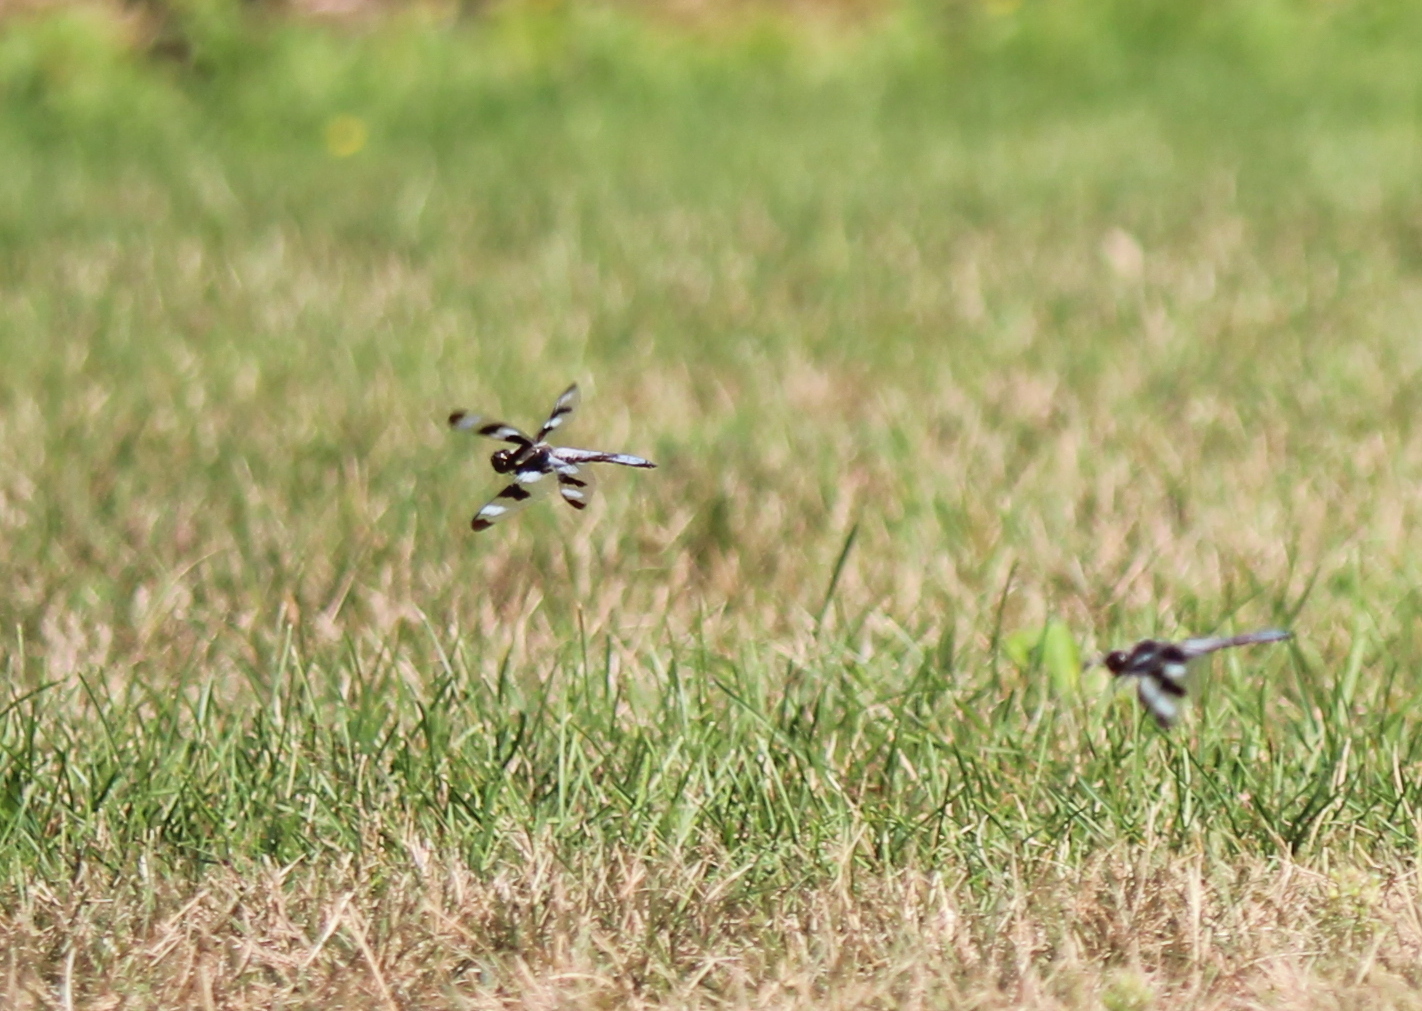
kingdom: Animalia
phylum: Arthropoda
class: Insecta
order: Odonata
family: Libellulidae
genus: Libellula
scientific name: Libellula pulchella
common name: Twelve-spotted skimmer
